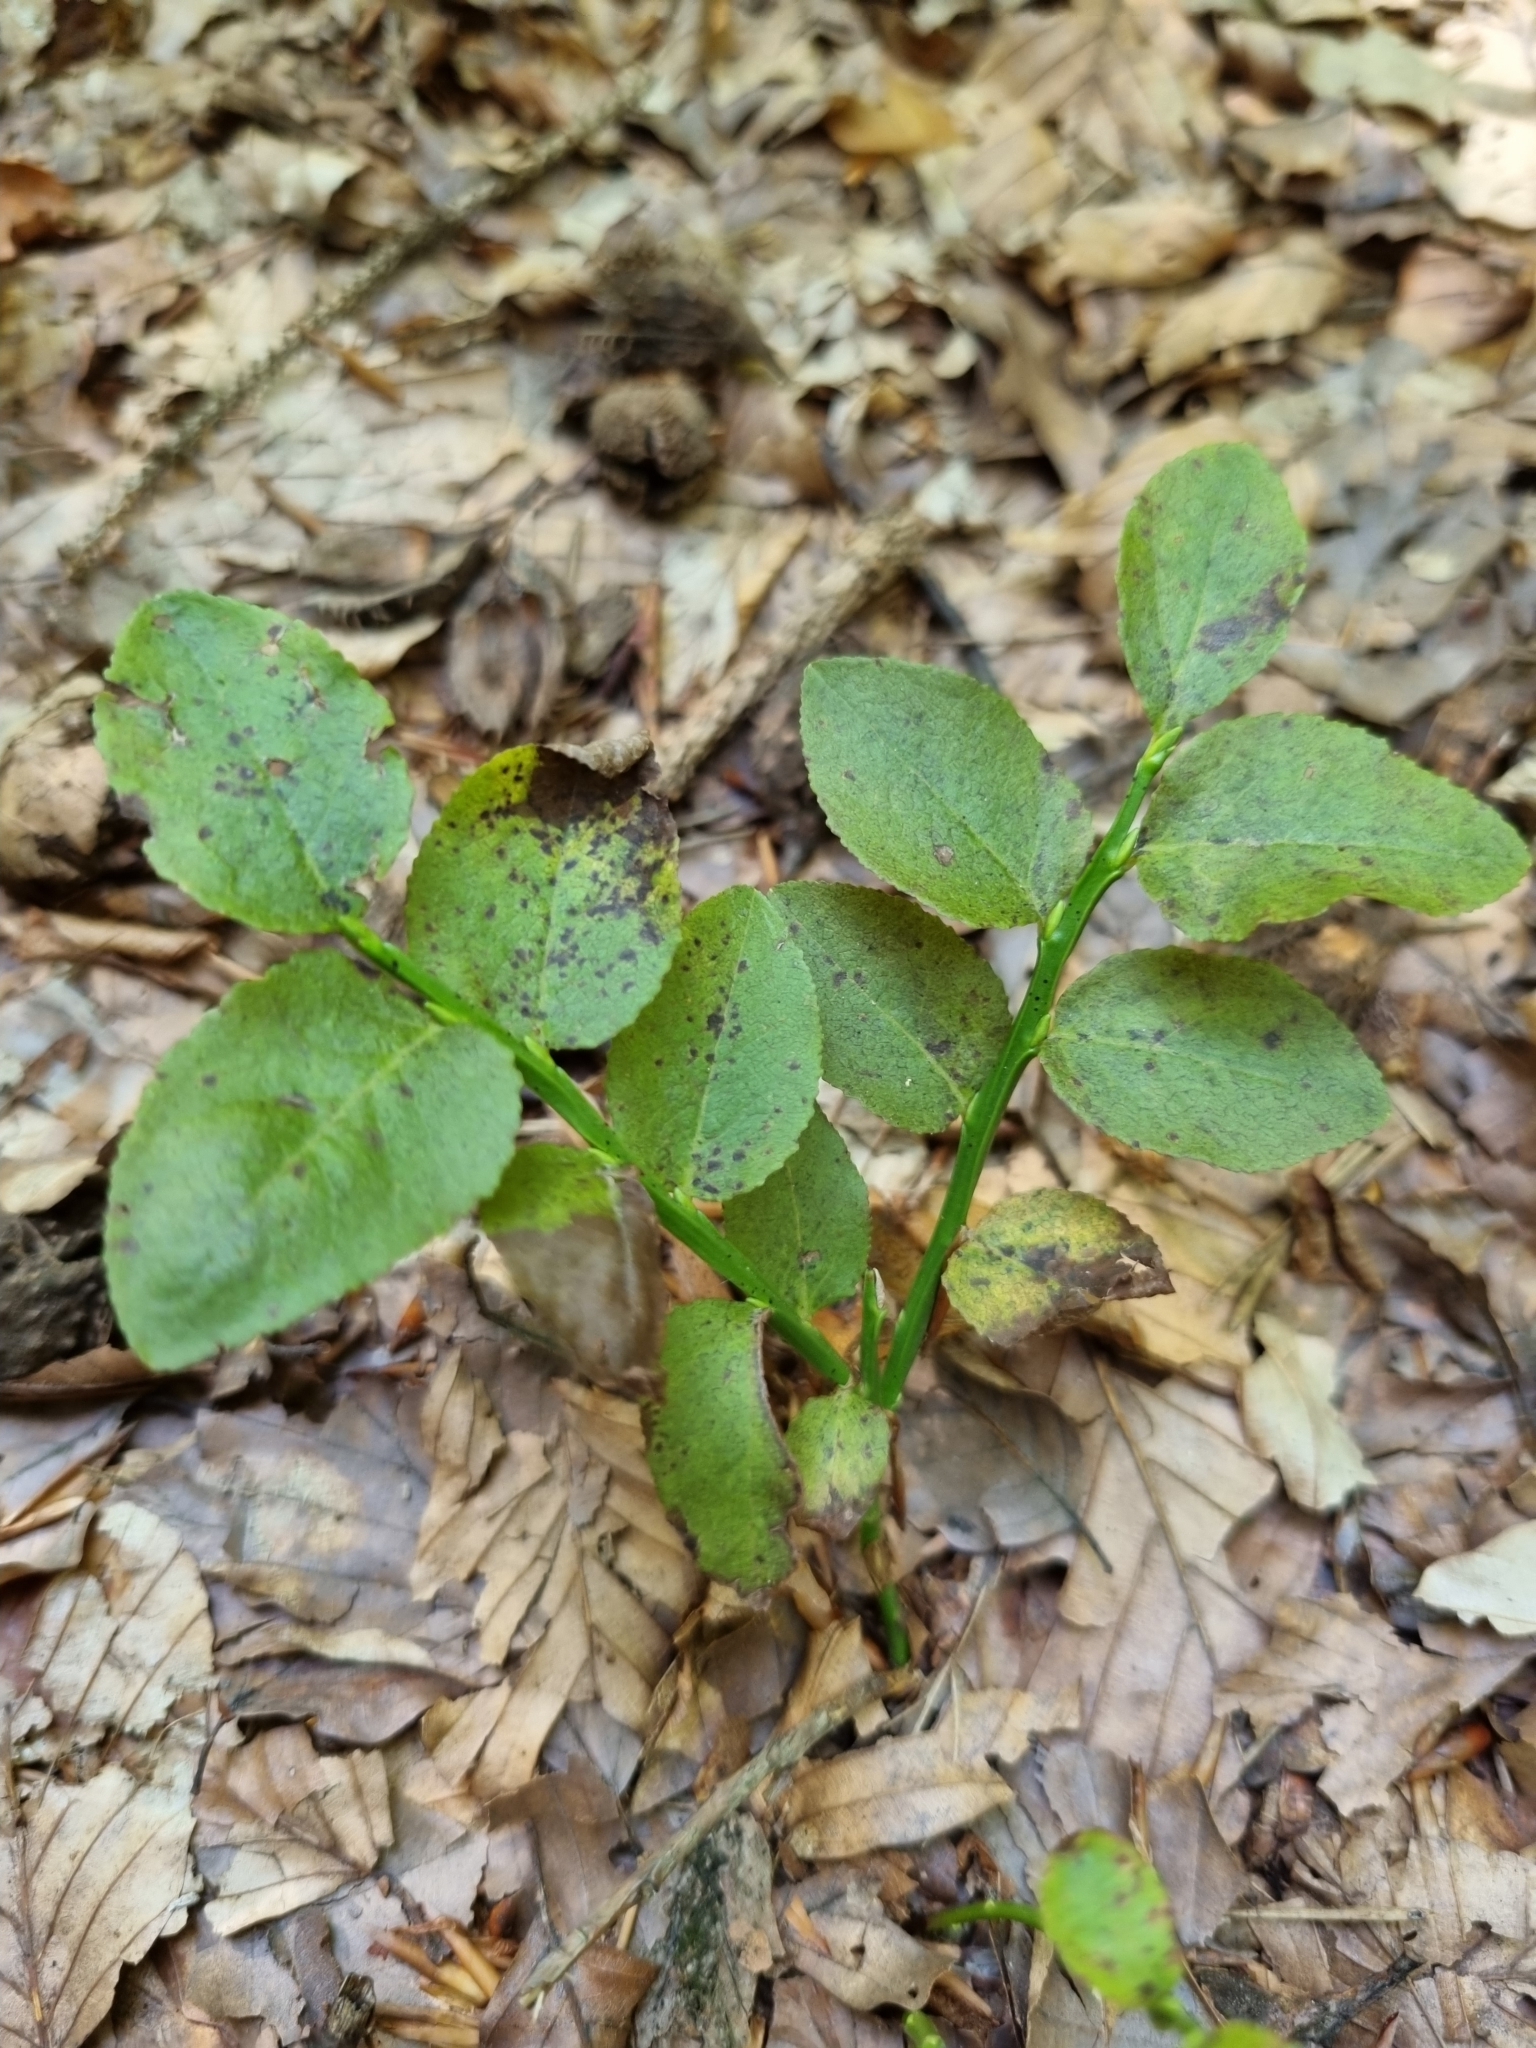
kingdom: Plantae
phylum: Tracheophyta
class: Magnoliopsida
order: Ericales
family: Ericaceae
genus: Vaccinium
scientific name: Vaccinium myrtillus
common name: Bilberry
